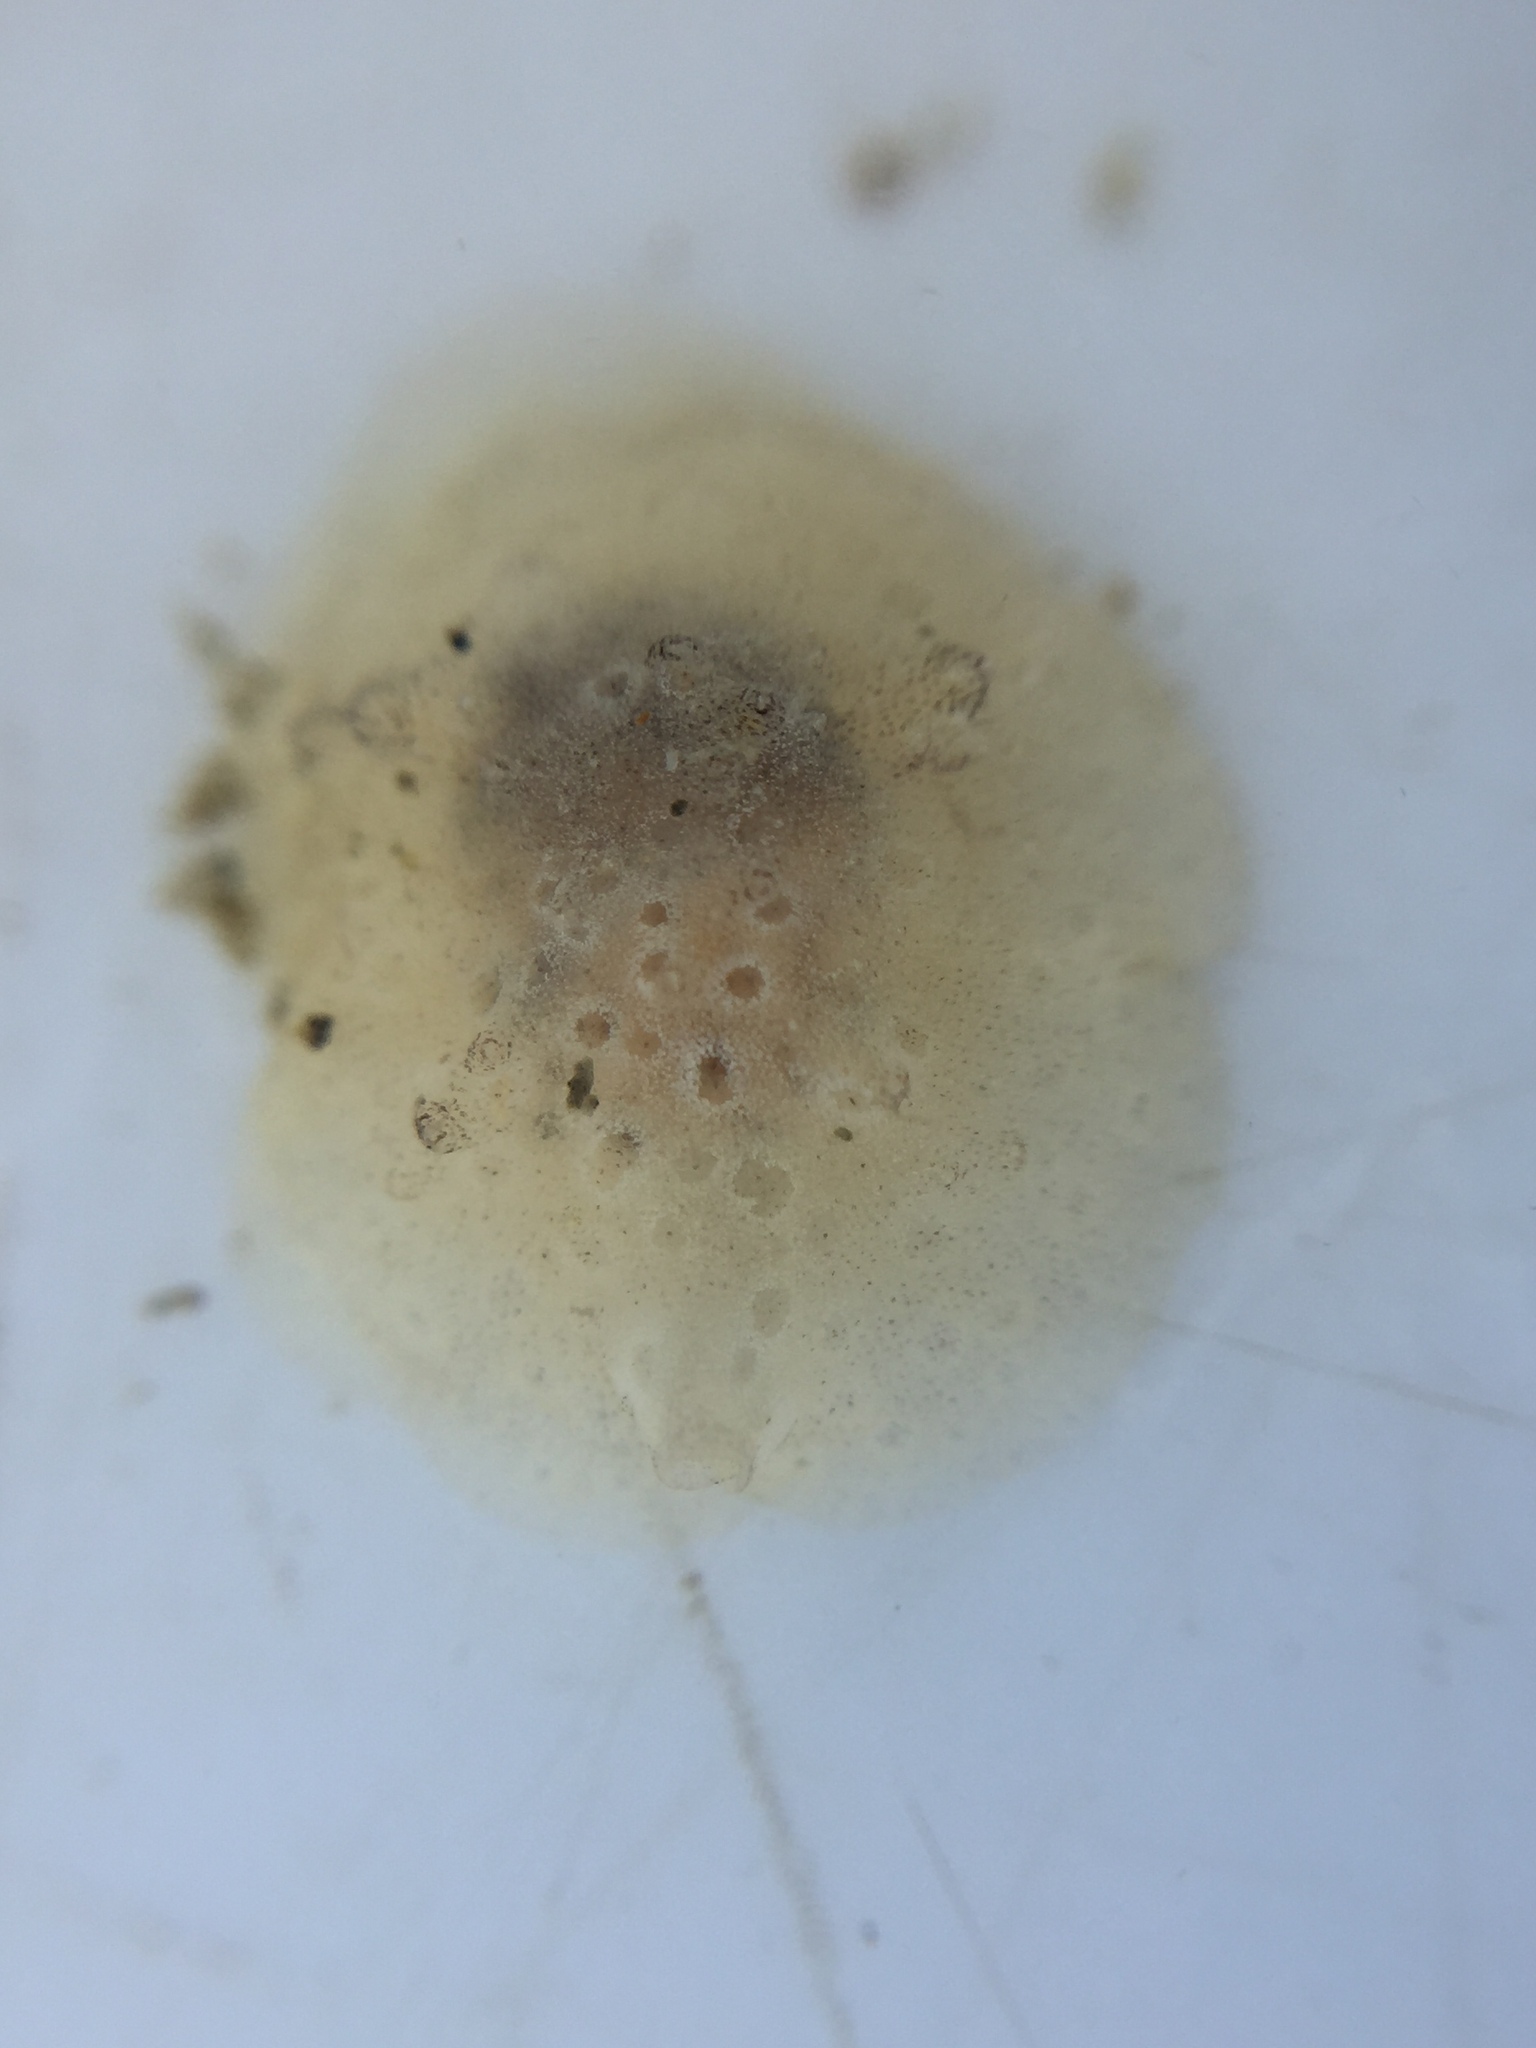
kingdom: Animalia
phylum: Mollusca
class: Gastropoda
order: Littorinimorpha
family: Velutinidae
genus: Lamellaria
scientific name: Lamellaria ophione
